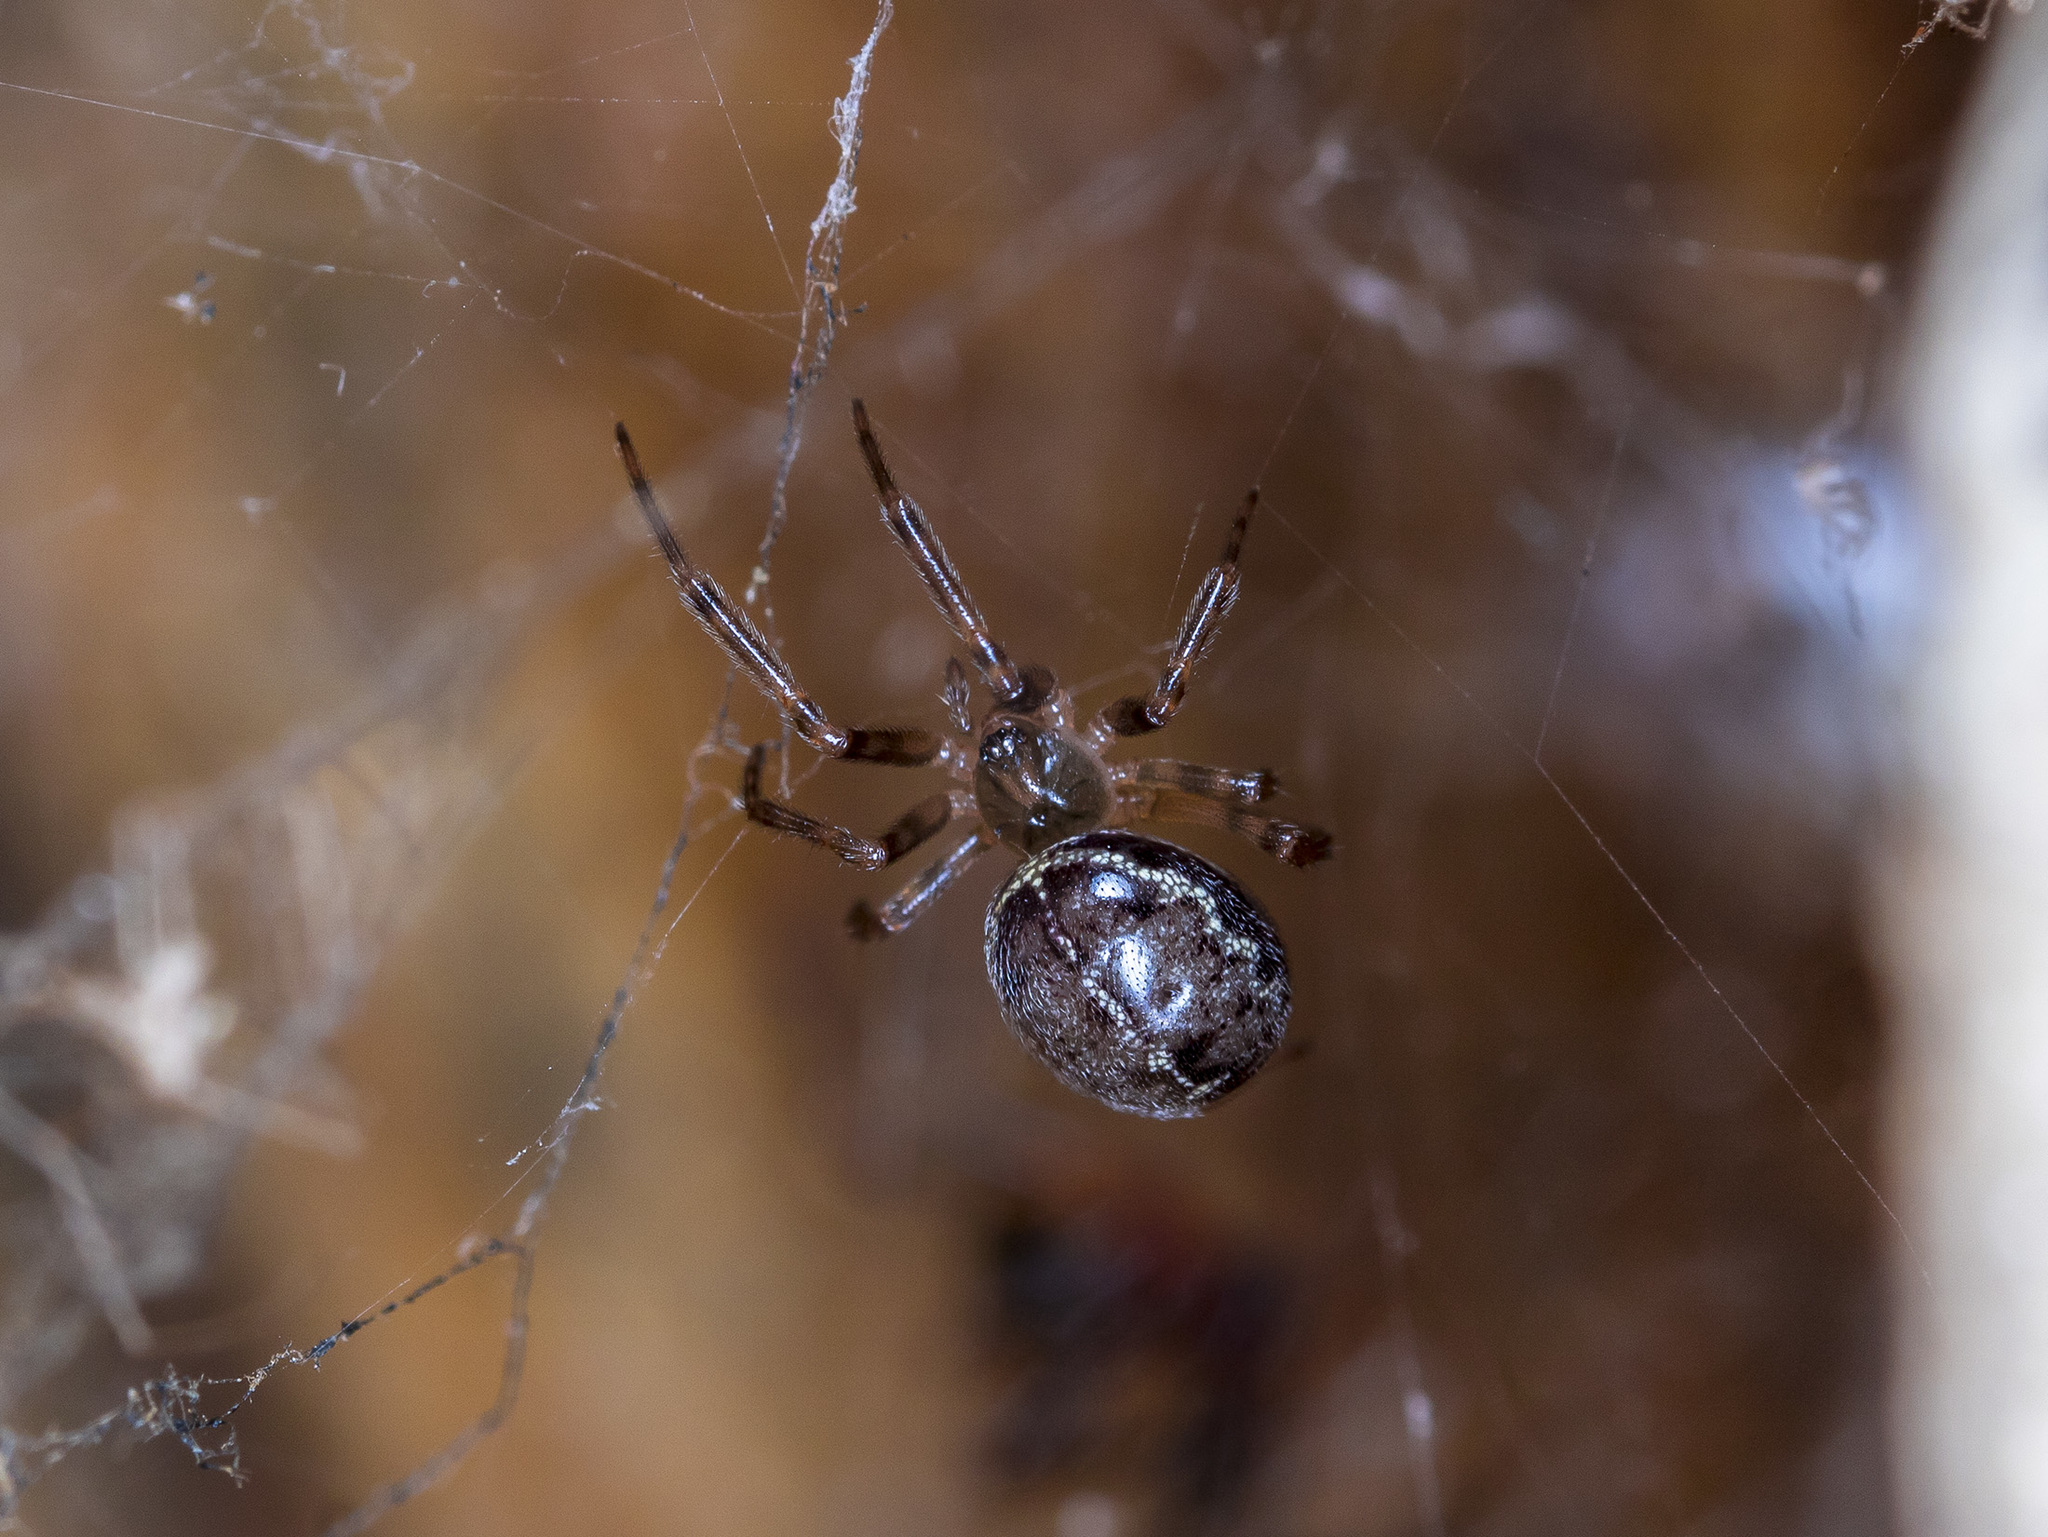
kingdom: Animalia
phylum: Arthropoda
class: Arachnida
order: Araneae
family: Theridiidae
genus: Steatoda
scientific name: Steatoda castanea
